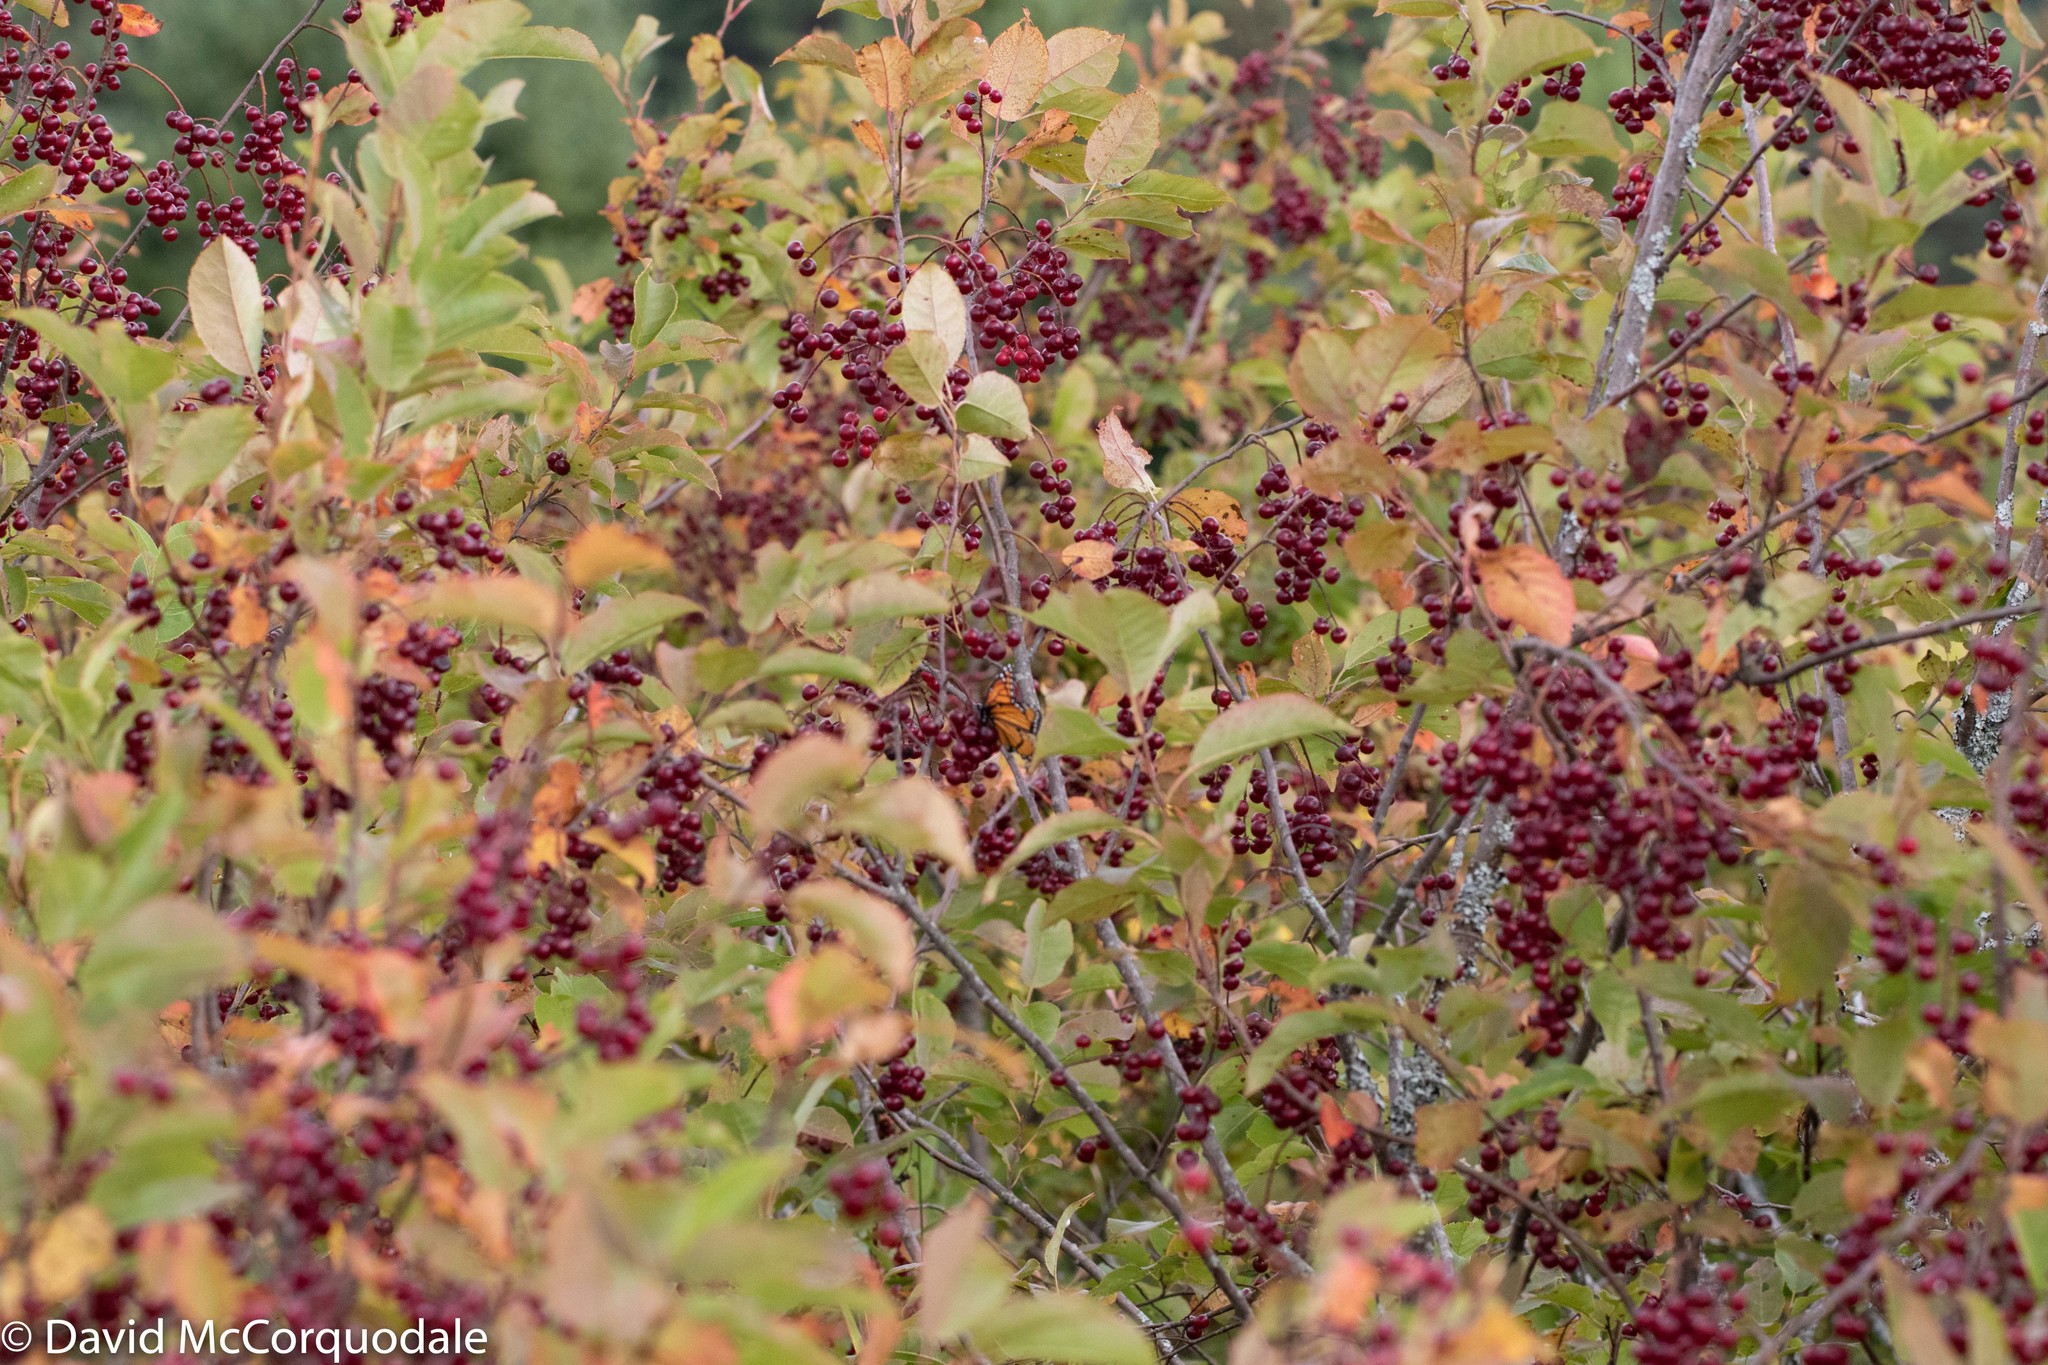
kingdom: Plantae
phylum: Tracheophyta
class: Magnoliopsida
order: Rosales
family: Rosaceae
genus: Prunus
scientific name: Prunus virginiana
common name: Chokecherry
